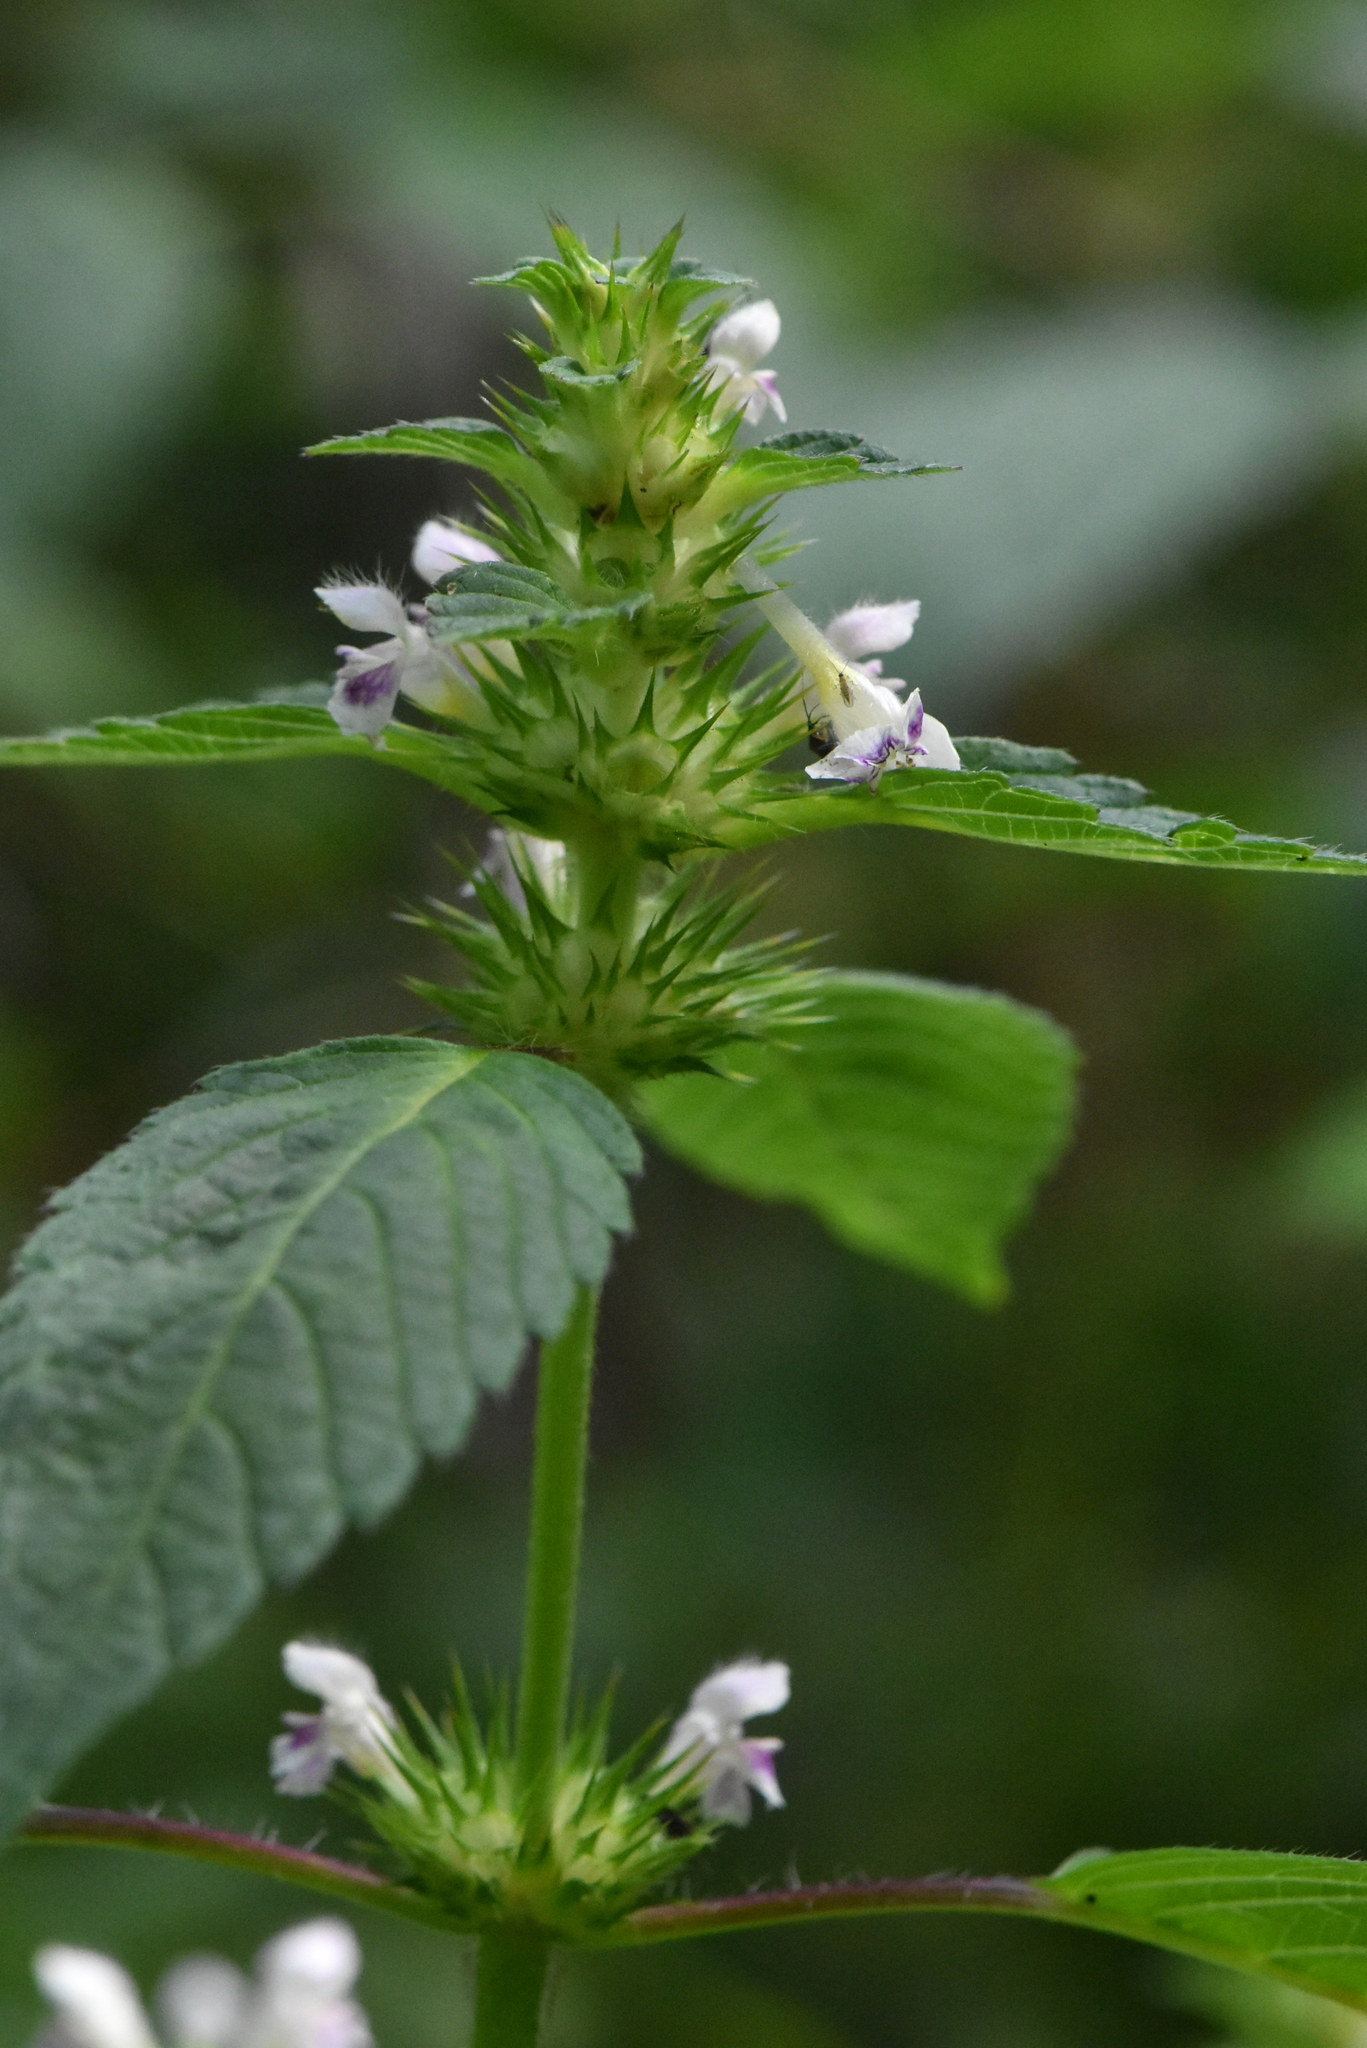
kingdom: Plantae
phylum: Tracheophyta
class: Magnoliopsida
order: Lamiales
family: Lamiaceae
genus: Galeopsis
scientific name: Galeopsis tetrahit
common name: Common hemp-nettle
